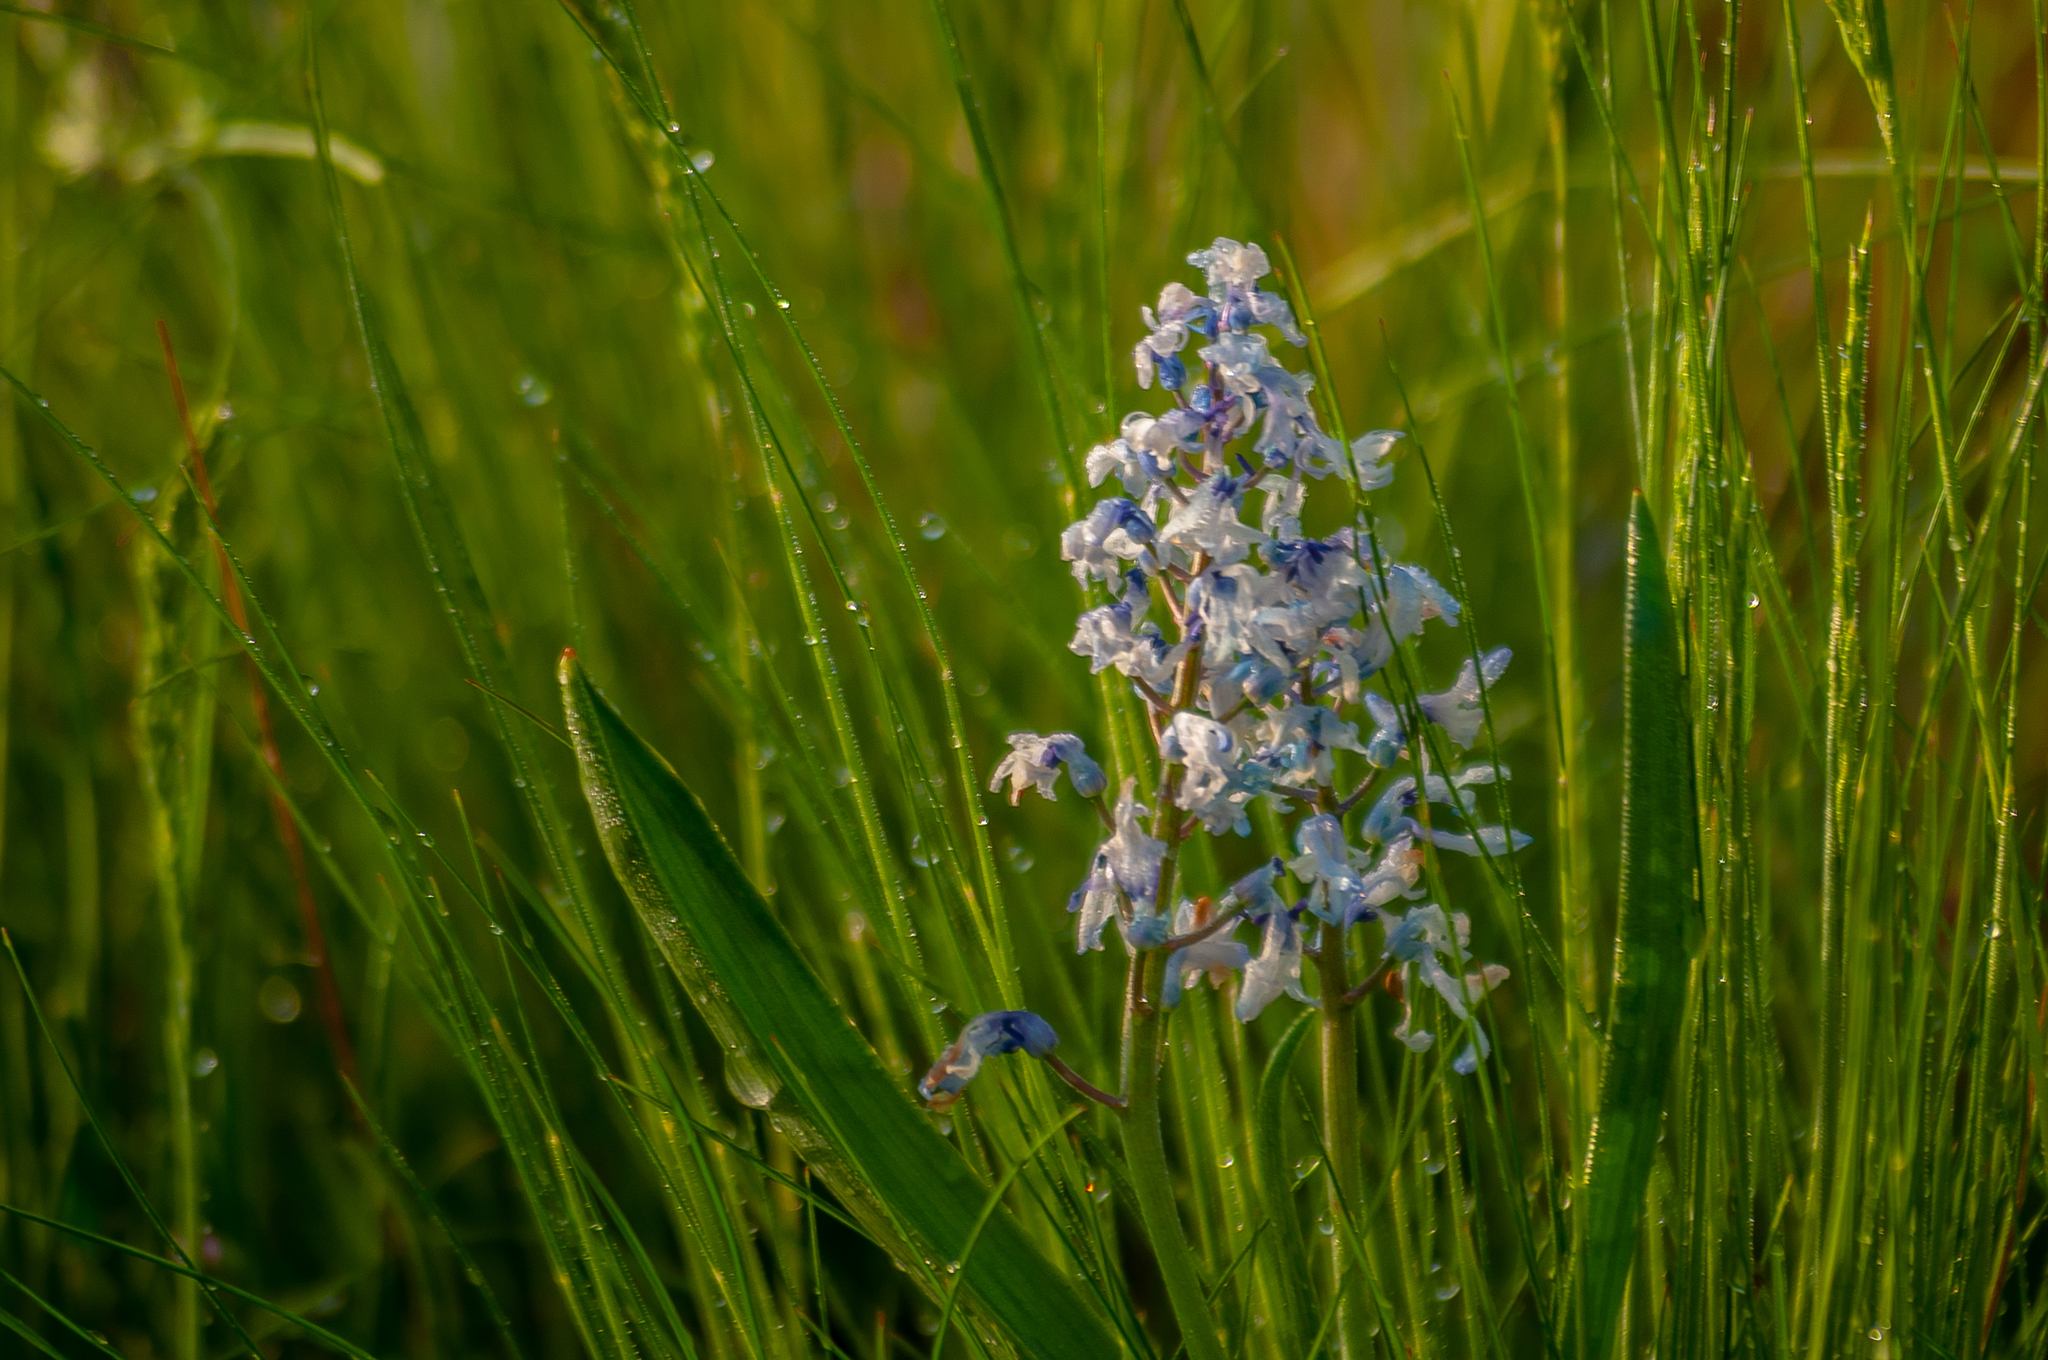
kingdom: Plantae
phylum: Tracheophyta
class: Liliopsida
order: Asparagales
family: Asparagaceae
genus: Hyacinthella
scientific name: Hyacinthella pallasiana
